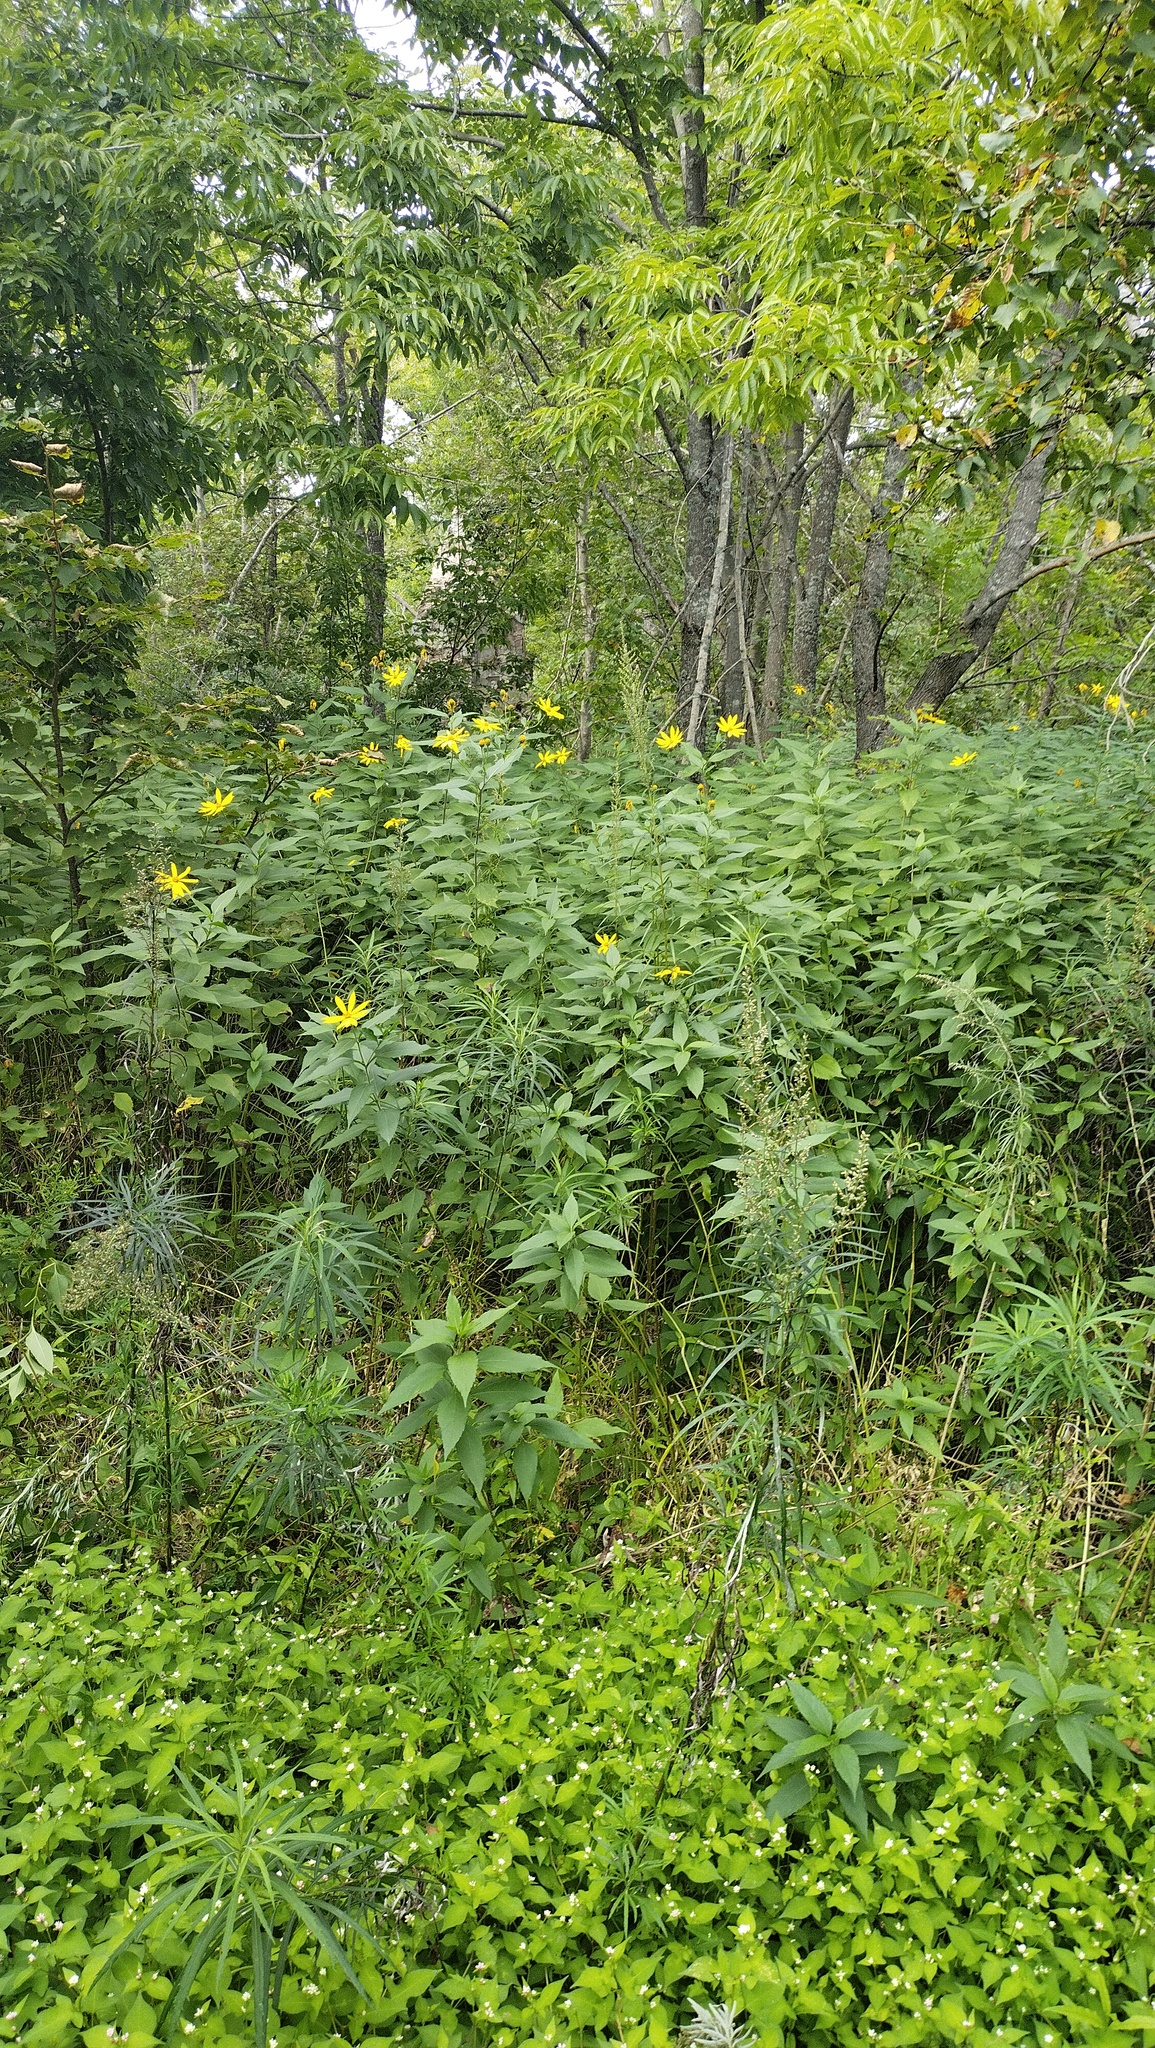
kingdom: Plantae
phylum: Tracheophyta
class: Magnoliopsida
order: Asterales
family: Asteraceae
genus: Helianthus
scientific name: Helianthus tuberosus
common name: Jerusalem artichoke
